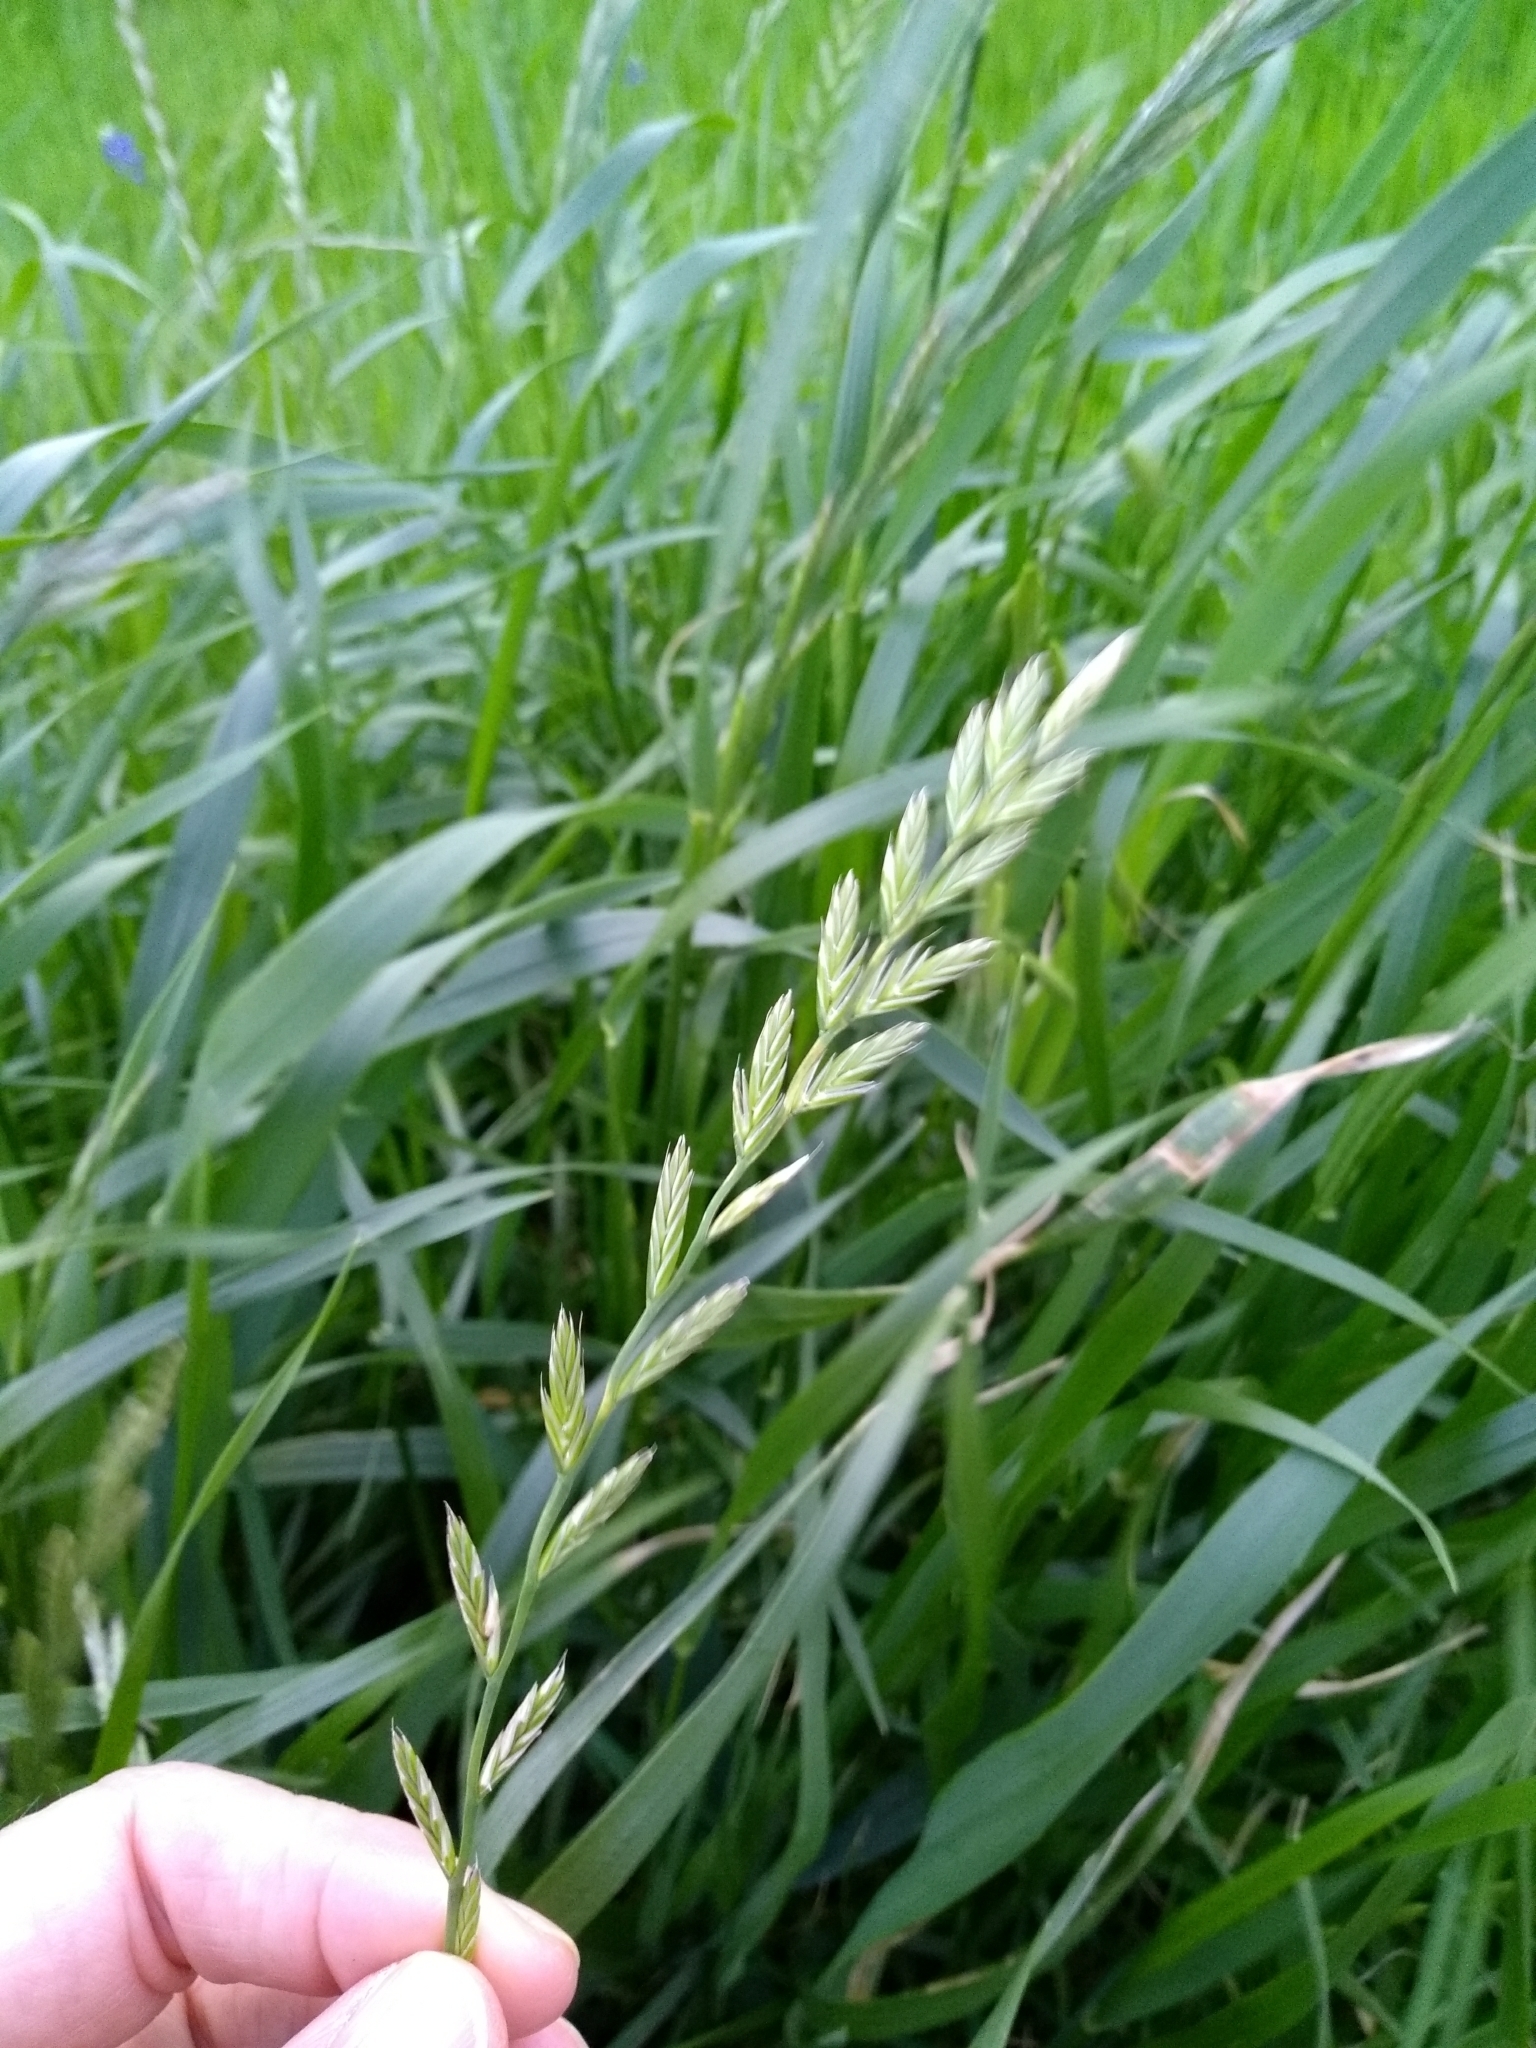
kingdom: Plantae
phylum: Tracheophyta
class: Liliopsida
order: Poales
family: Poaceae
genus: Lolium
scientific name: Lolium perenne
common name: Perennial ryegrass
